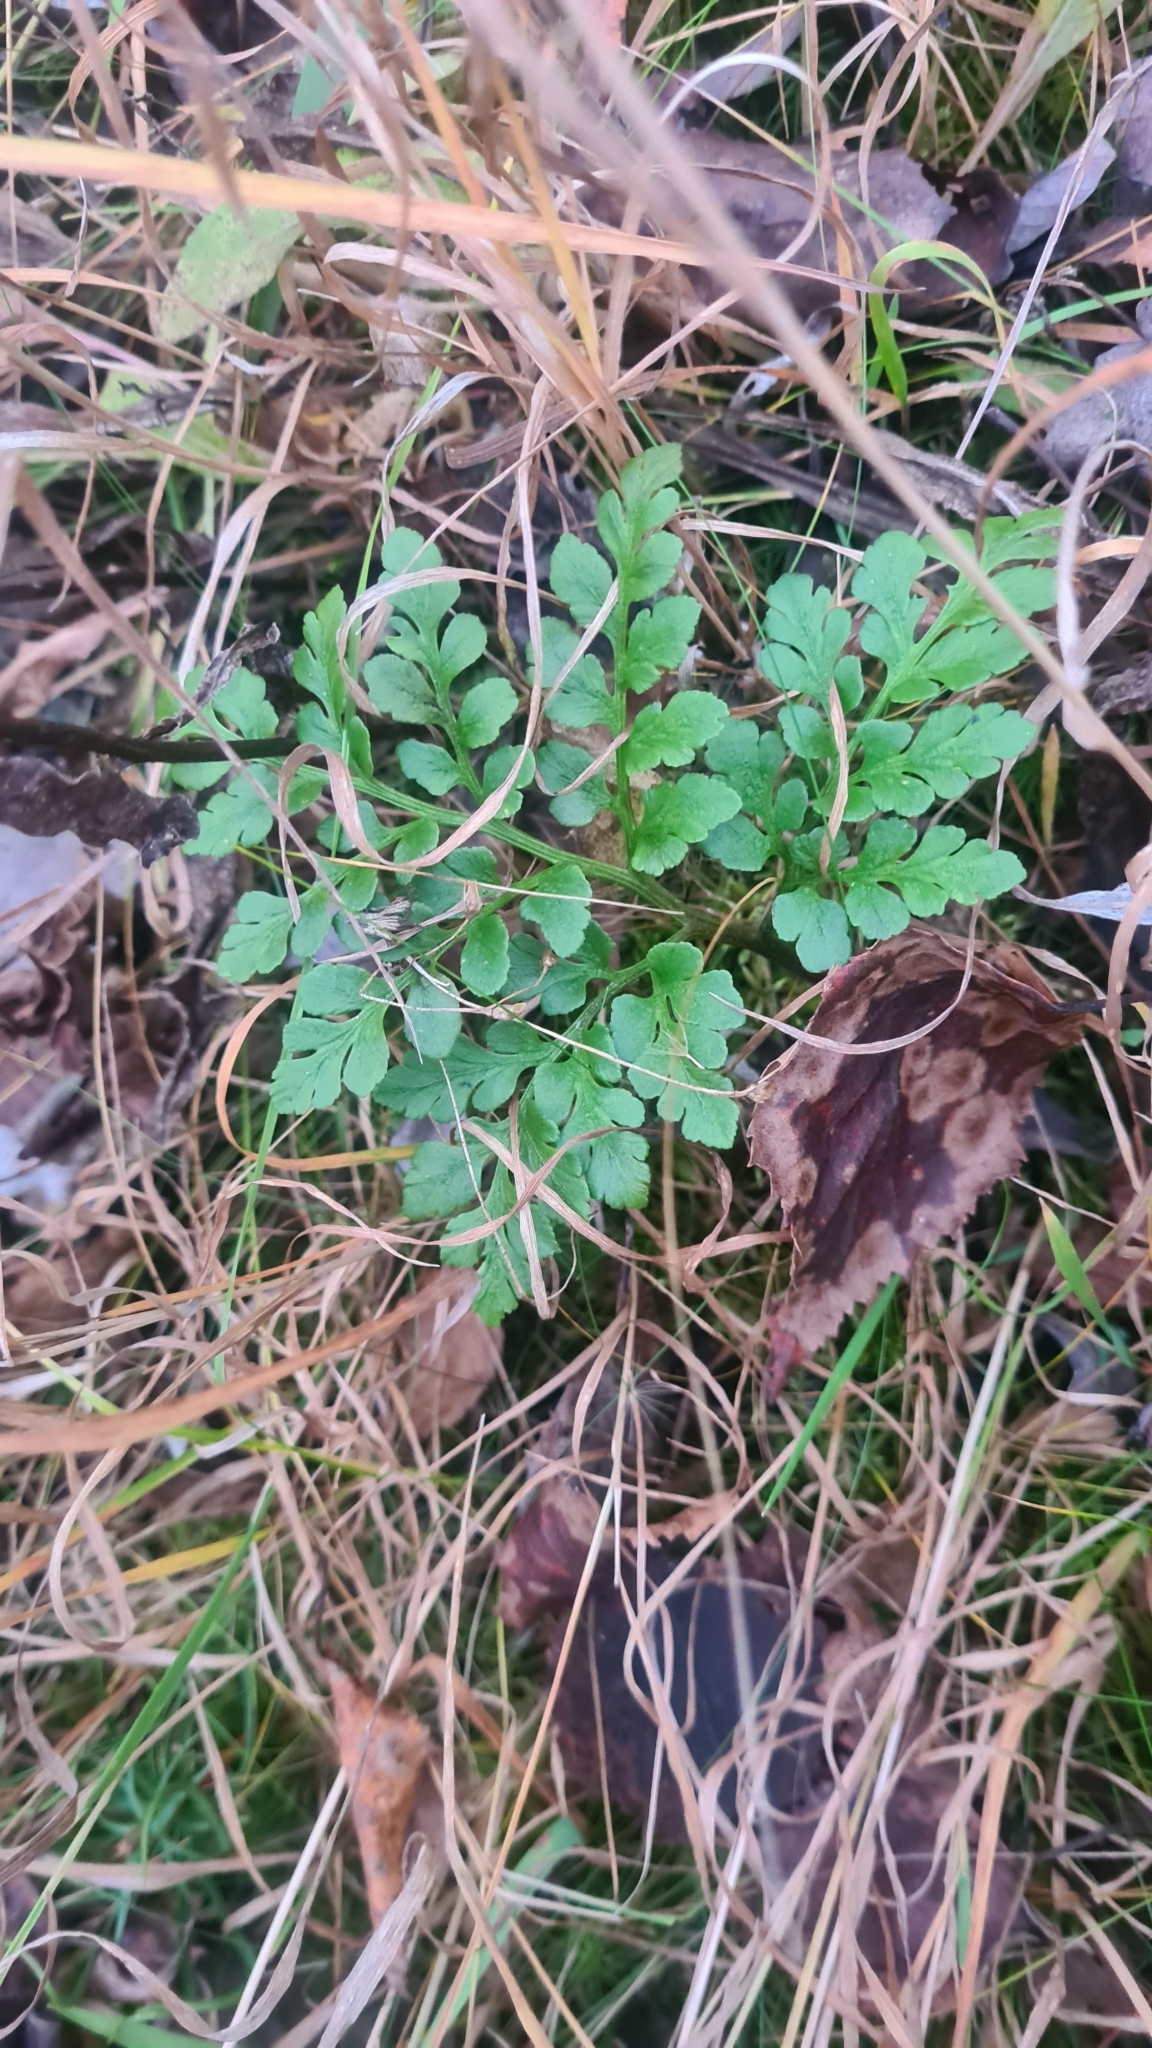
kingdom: Plantae
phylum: Tracheophyta
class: Polypodiopsida
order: Ophioglossales
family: Ophioglossaceae
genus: Sceptridium
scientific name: Sceptridium multifidum
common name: Leathery grape fern
